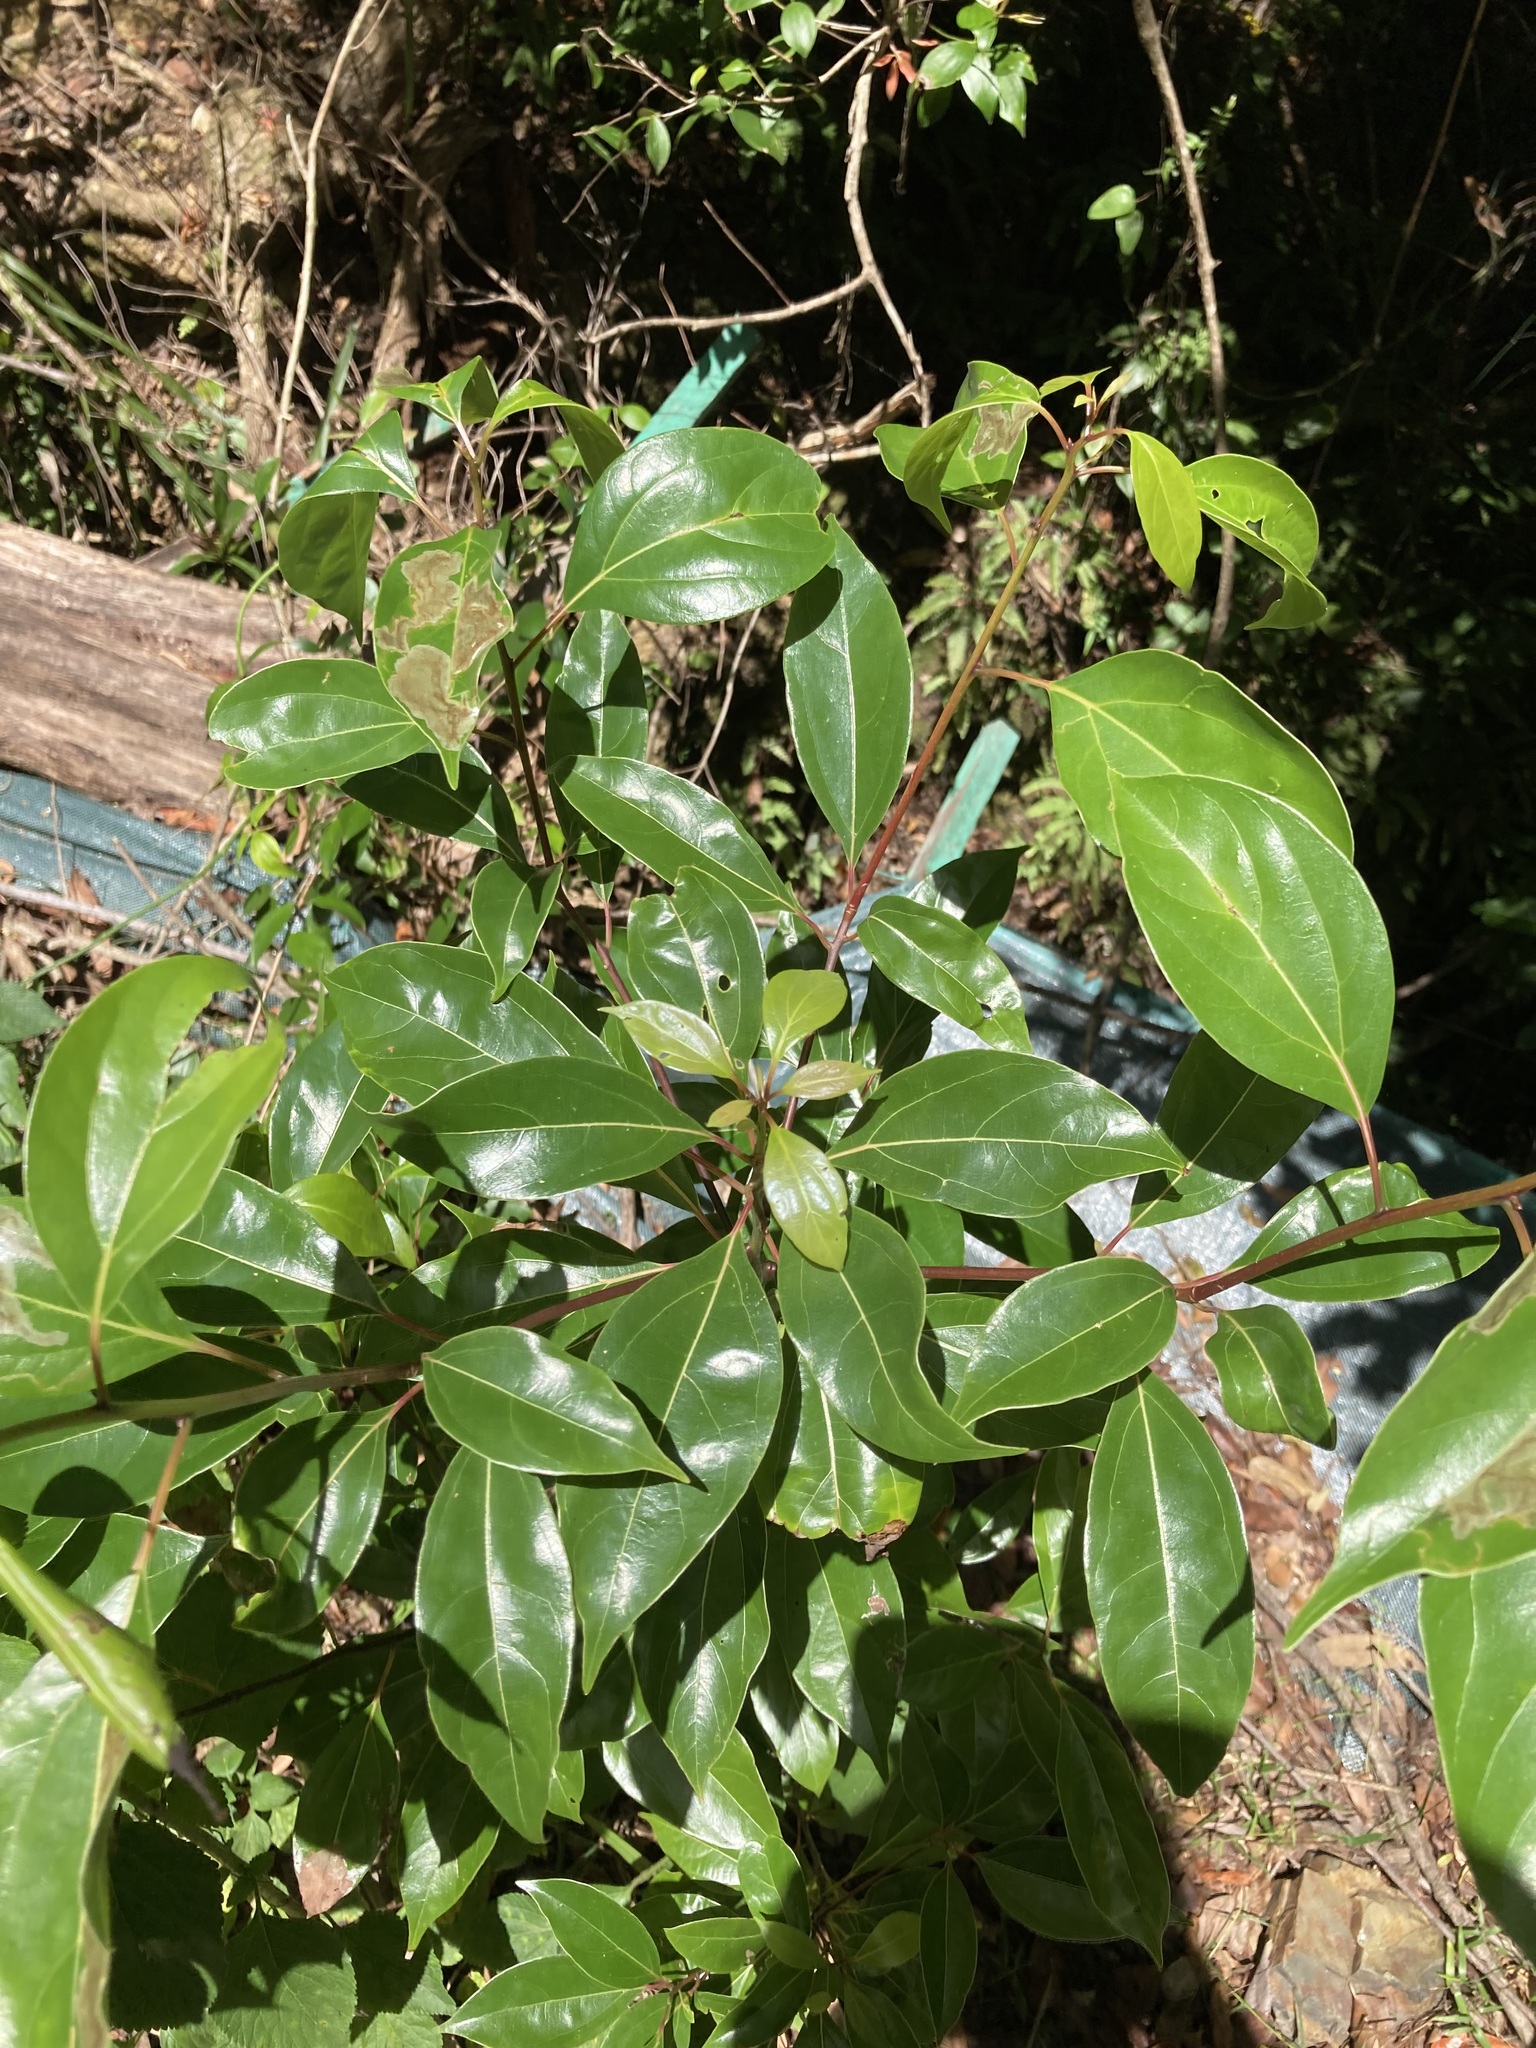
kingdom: Plantae
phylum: Tracheophyta
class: Magnoliopsida
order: Laurales
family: Lauraceae
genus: Cinnamomum
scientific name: Cinnamomum camphora
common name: Camphortree
